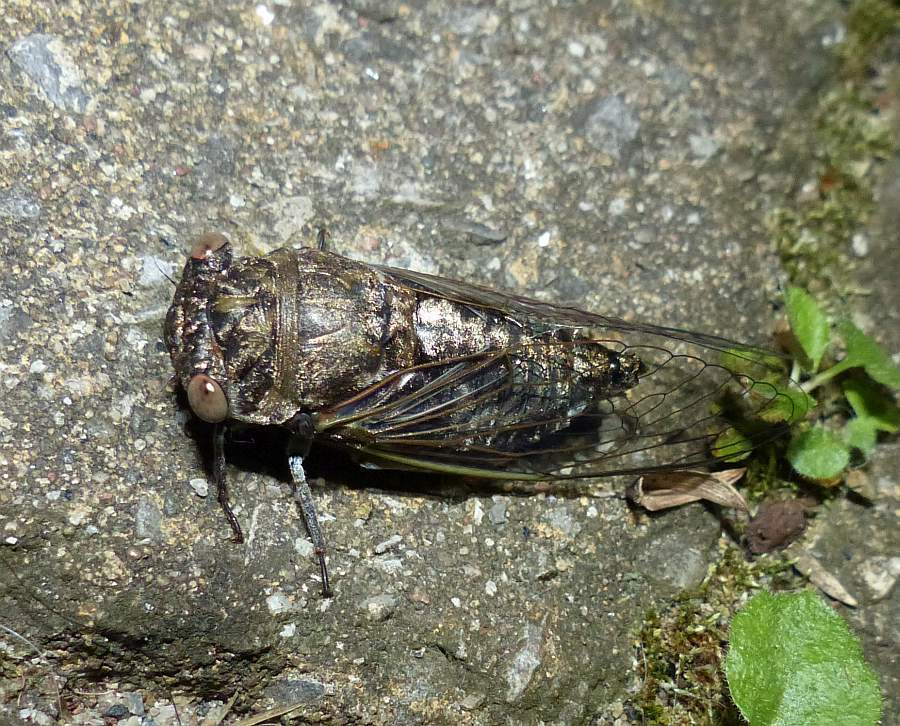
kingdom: Animalia
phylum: Arthropoda
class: Insecta
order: Hemiptera
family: Cicadidae
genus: Neotibicen
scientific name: Neotibicen canicularis
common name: God-day cicada
